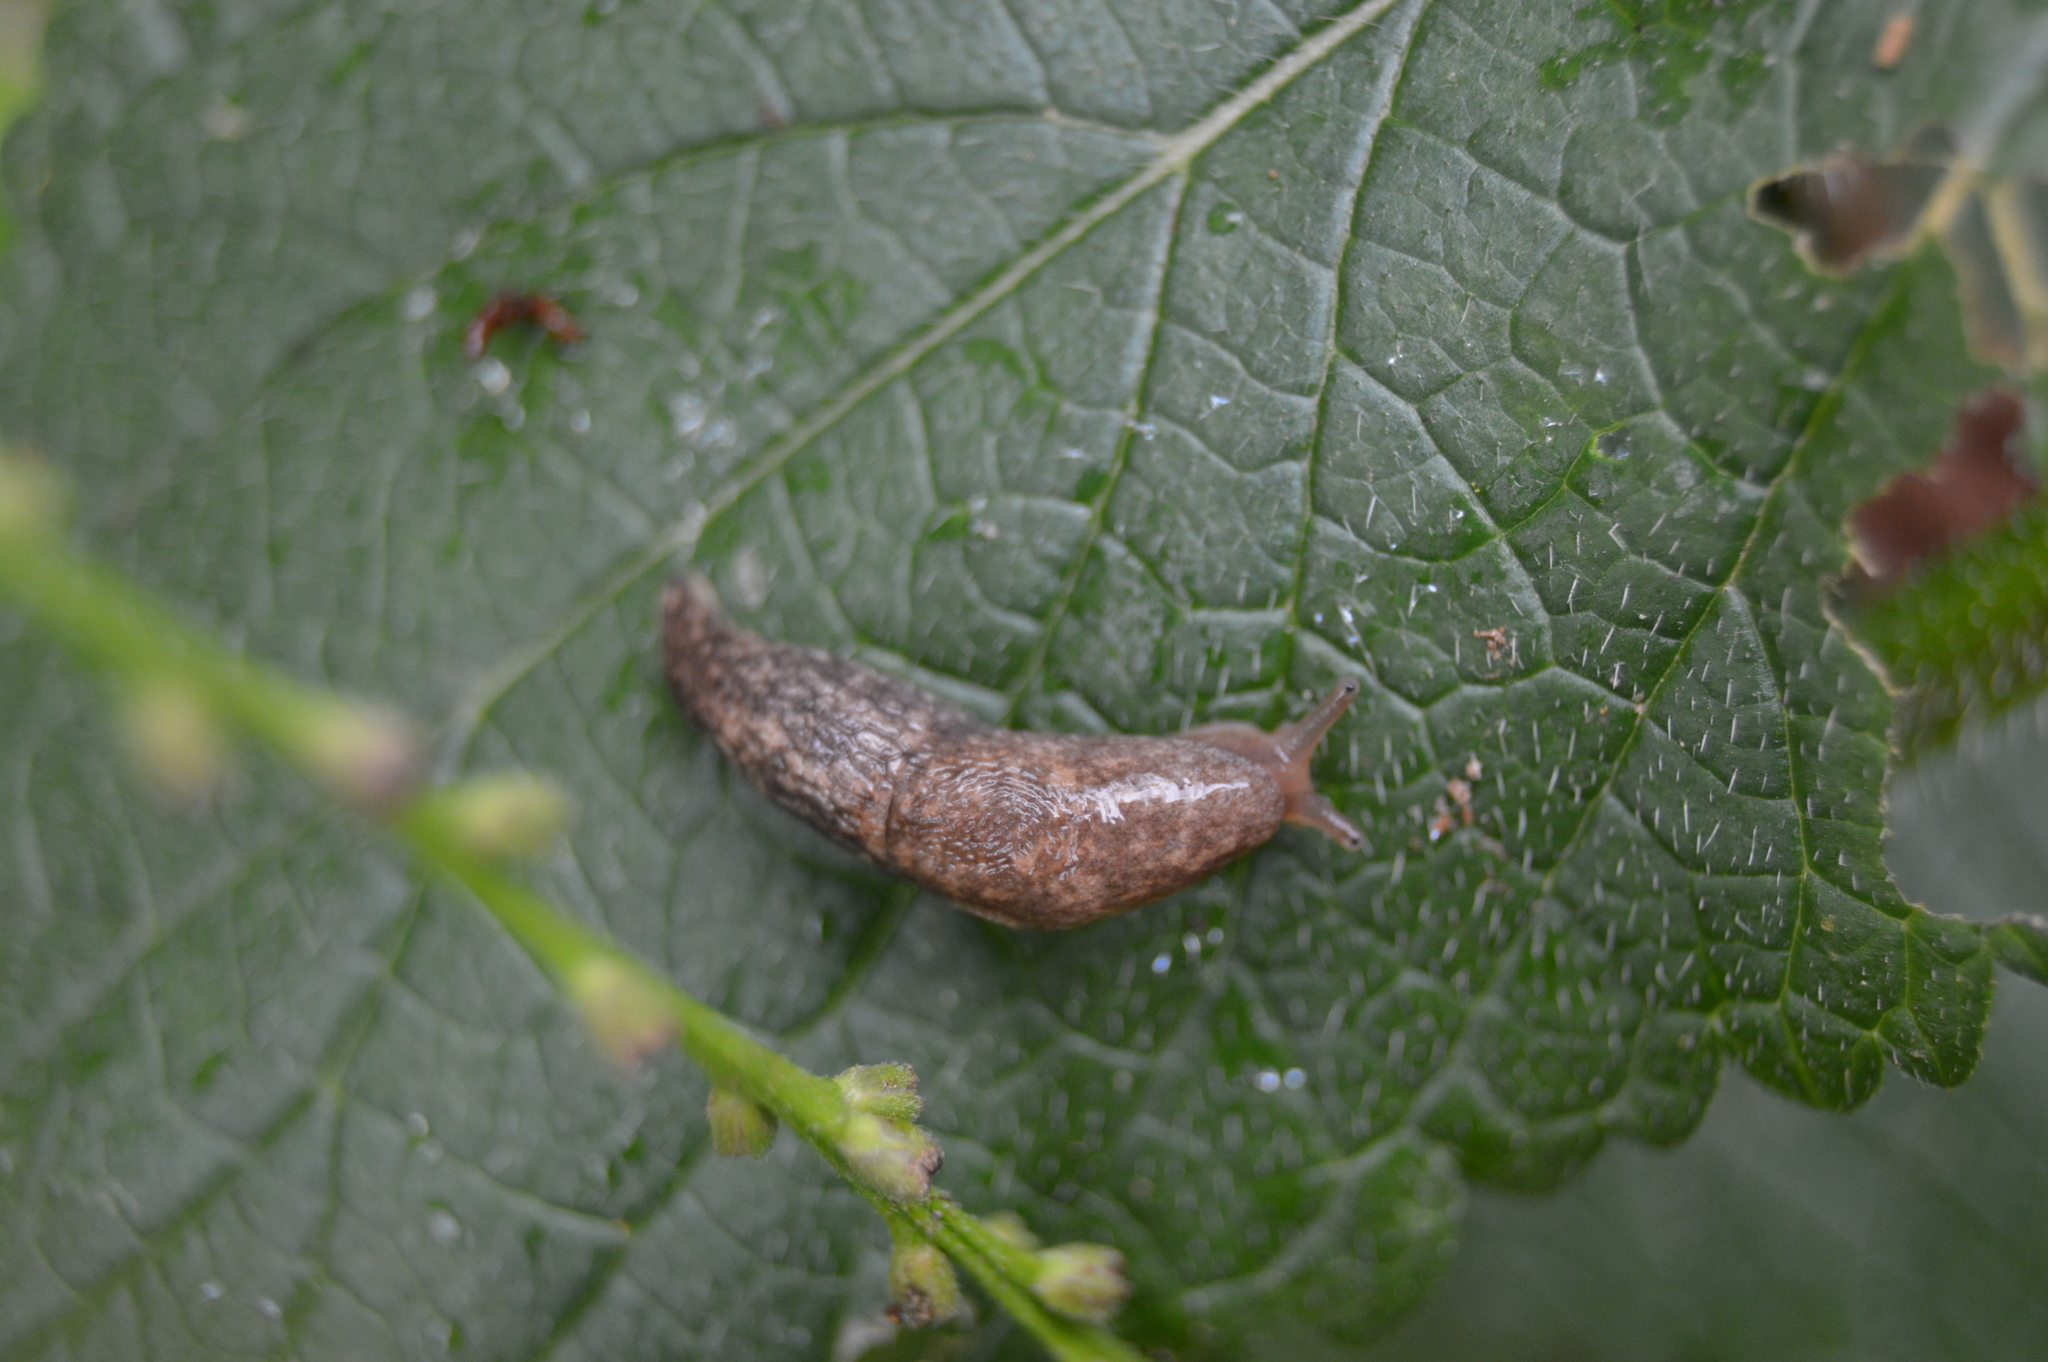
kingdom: Animalia
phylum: Mollusca
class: Gastropoda
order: Stylommatophora
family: Agriolimacidae
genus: Deroceras
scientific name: Deroceras reticulatum
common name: Gray field slug
